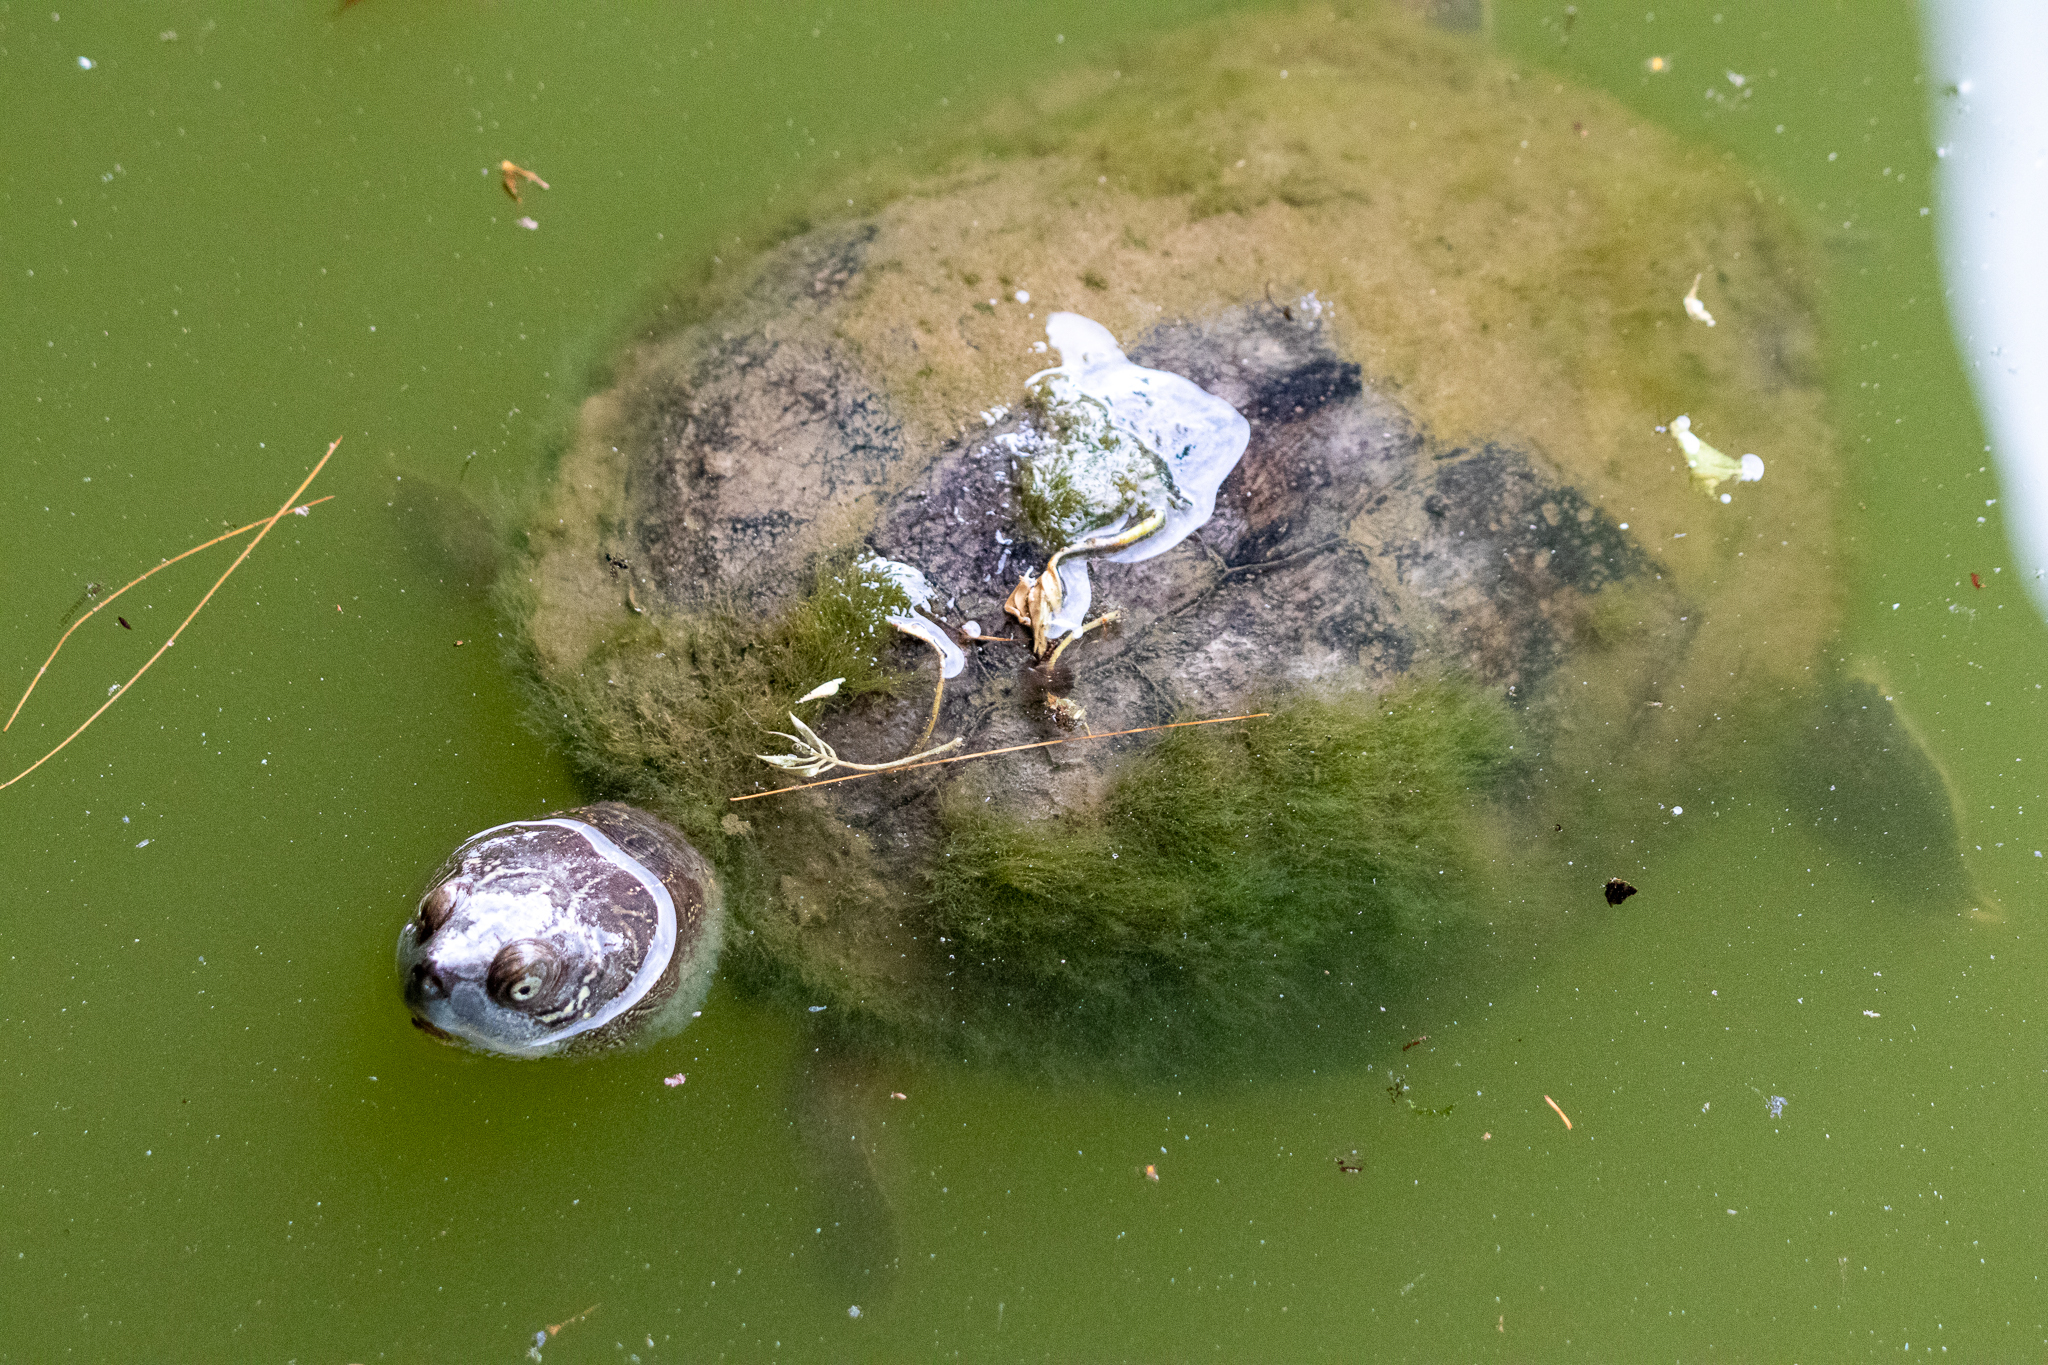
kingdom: Animalia
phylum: Chordata
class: Testudines
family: Emydidae
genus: Graptemys
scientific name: Graptemys pseudogeographica
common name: False map turtle
